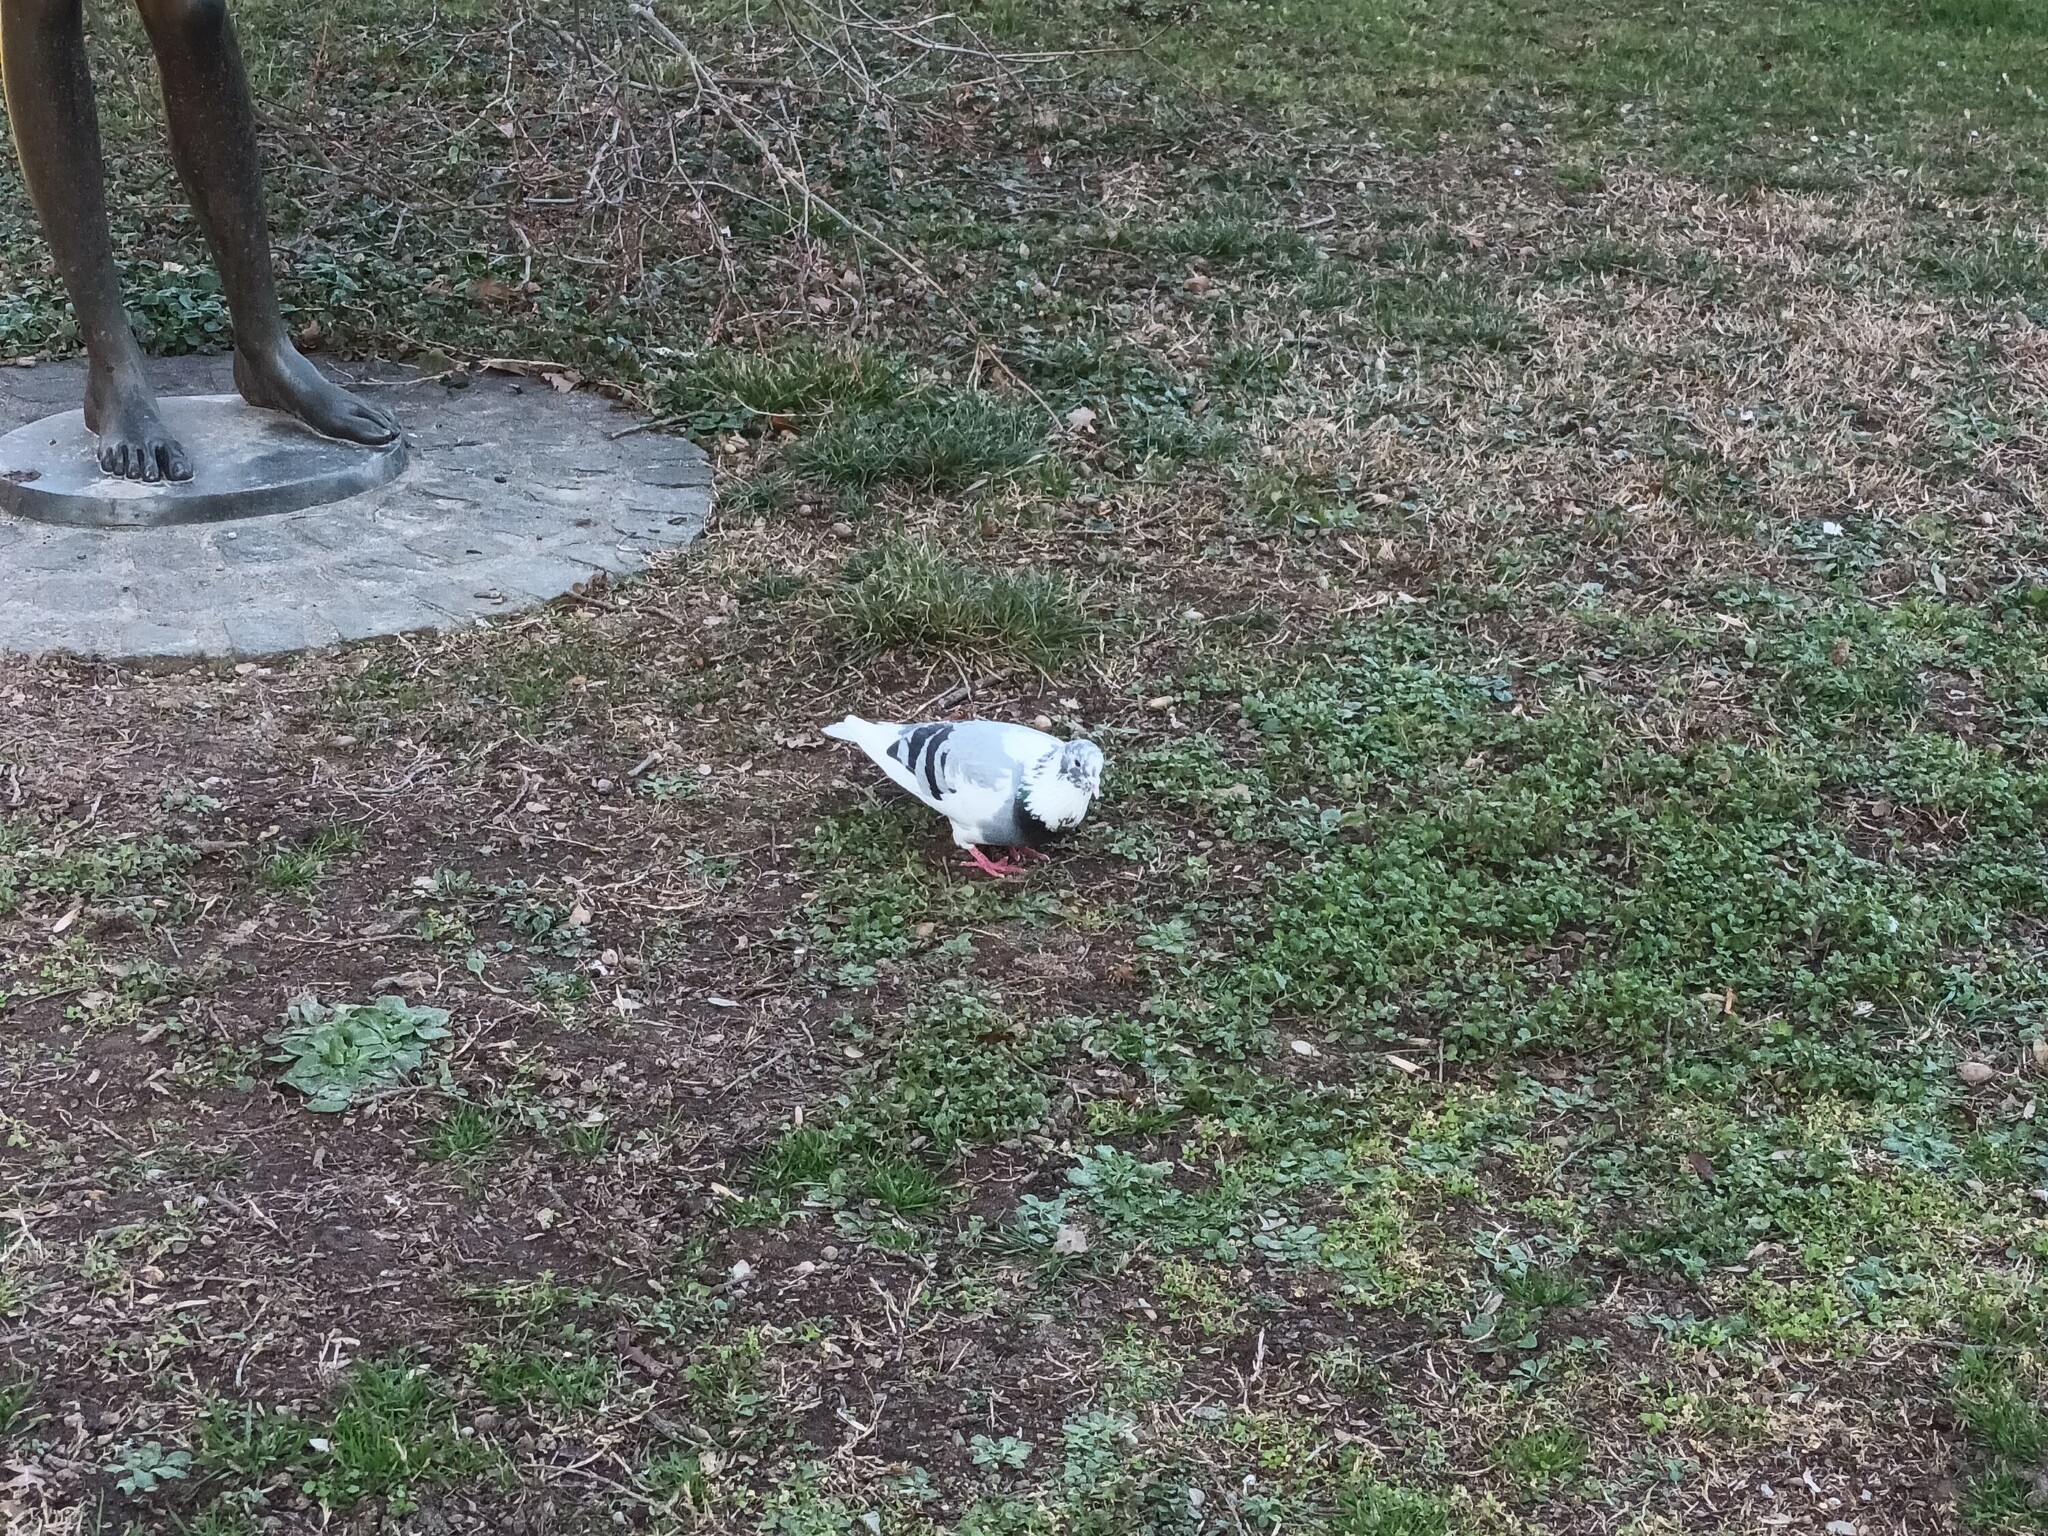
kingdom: Animalia
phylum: Chordata
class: Aves
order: Columbiformes
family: Columbidae
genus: Columba
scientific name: Columba livia
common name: Rock pigeon
